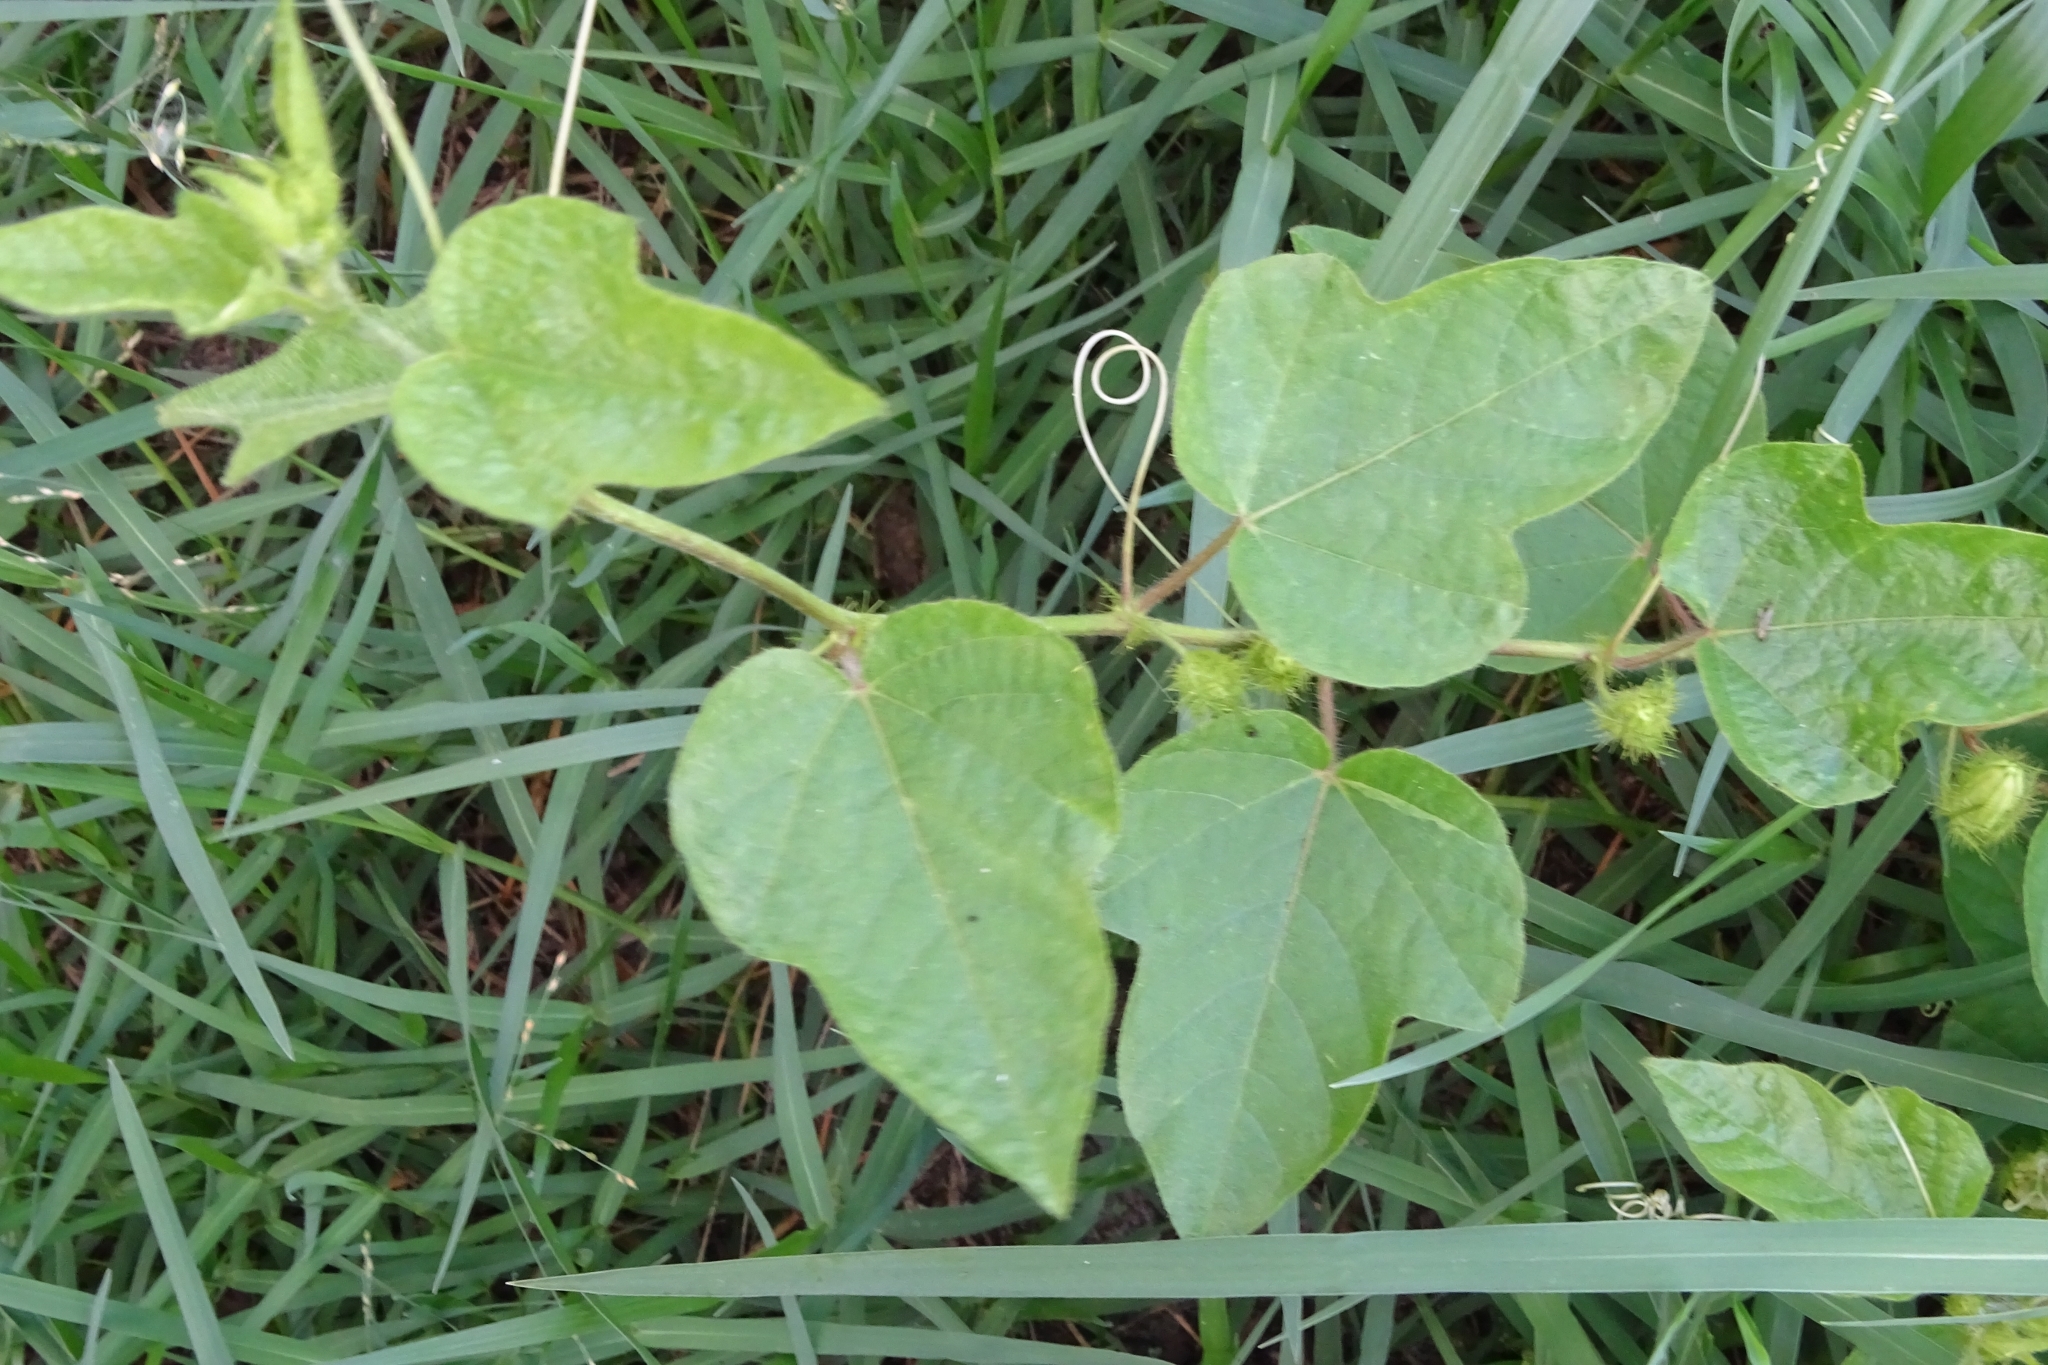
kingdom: Plantae
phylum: Tracheophyta
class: Magnoliopsida
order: Malpighiales
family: Passifloraceae
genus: Passiflora
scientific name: Passiflora foetida
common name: Fetid passionflower
